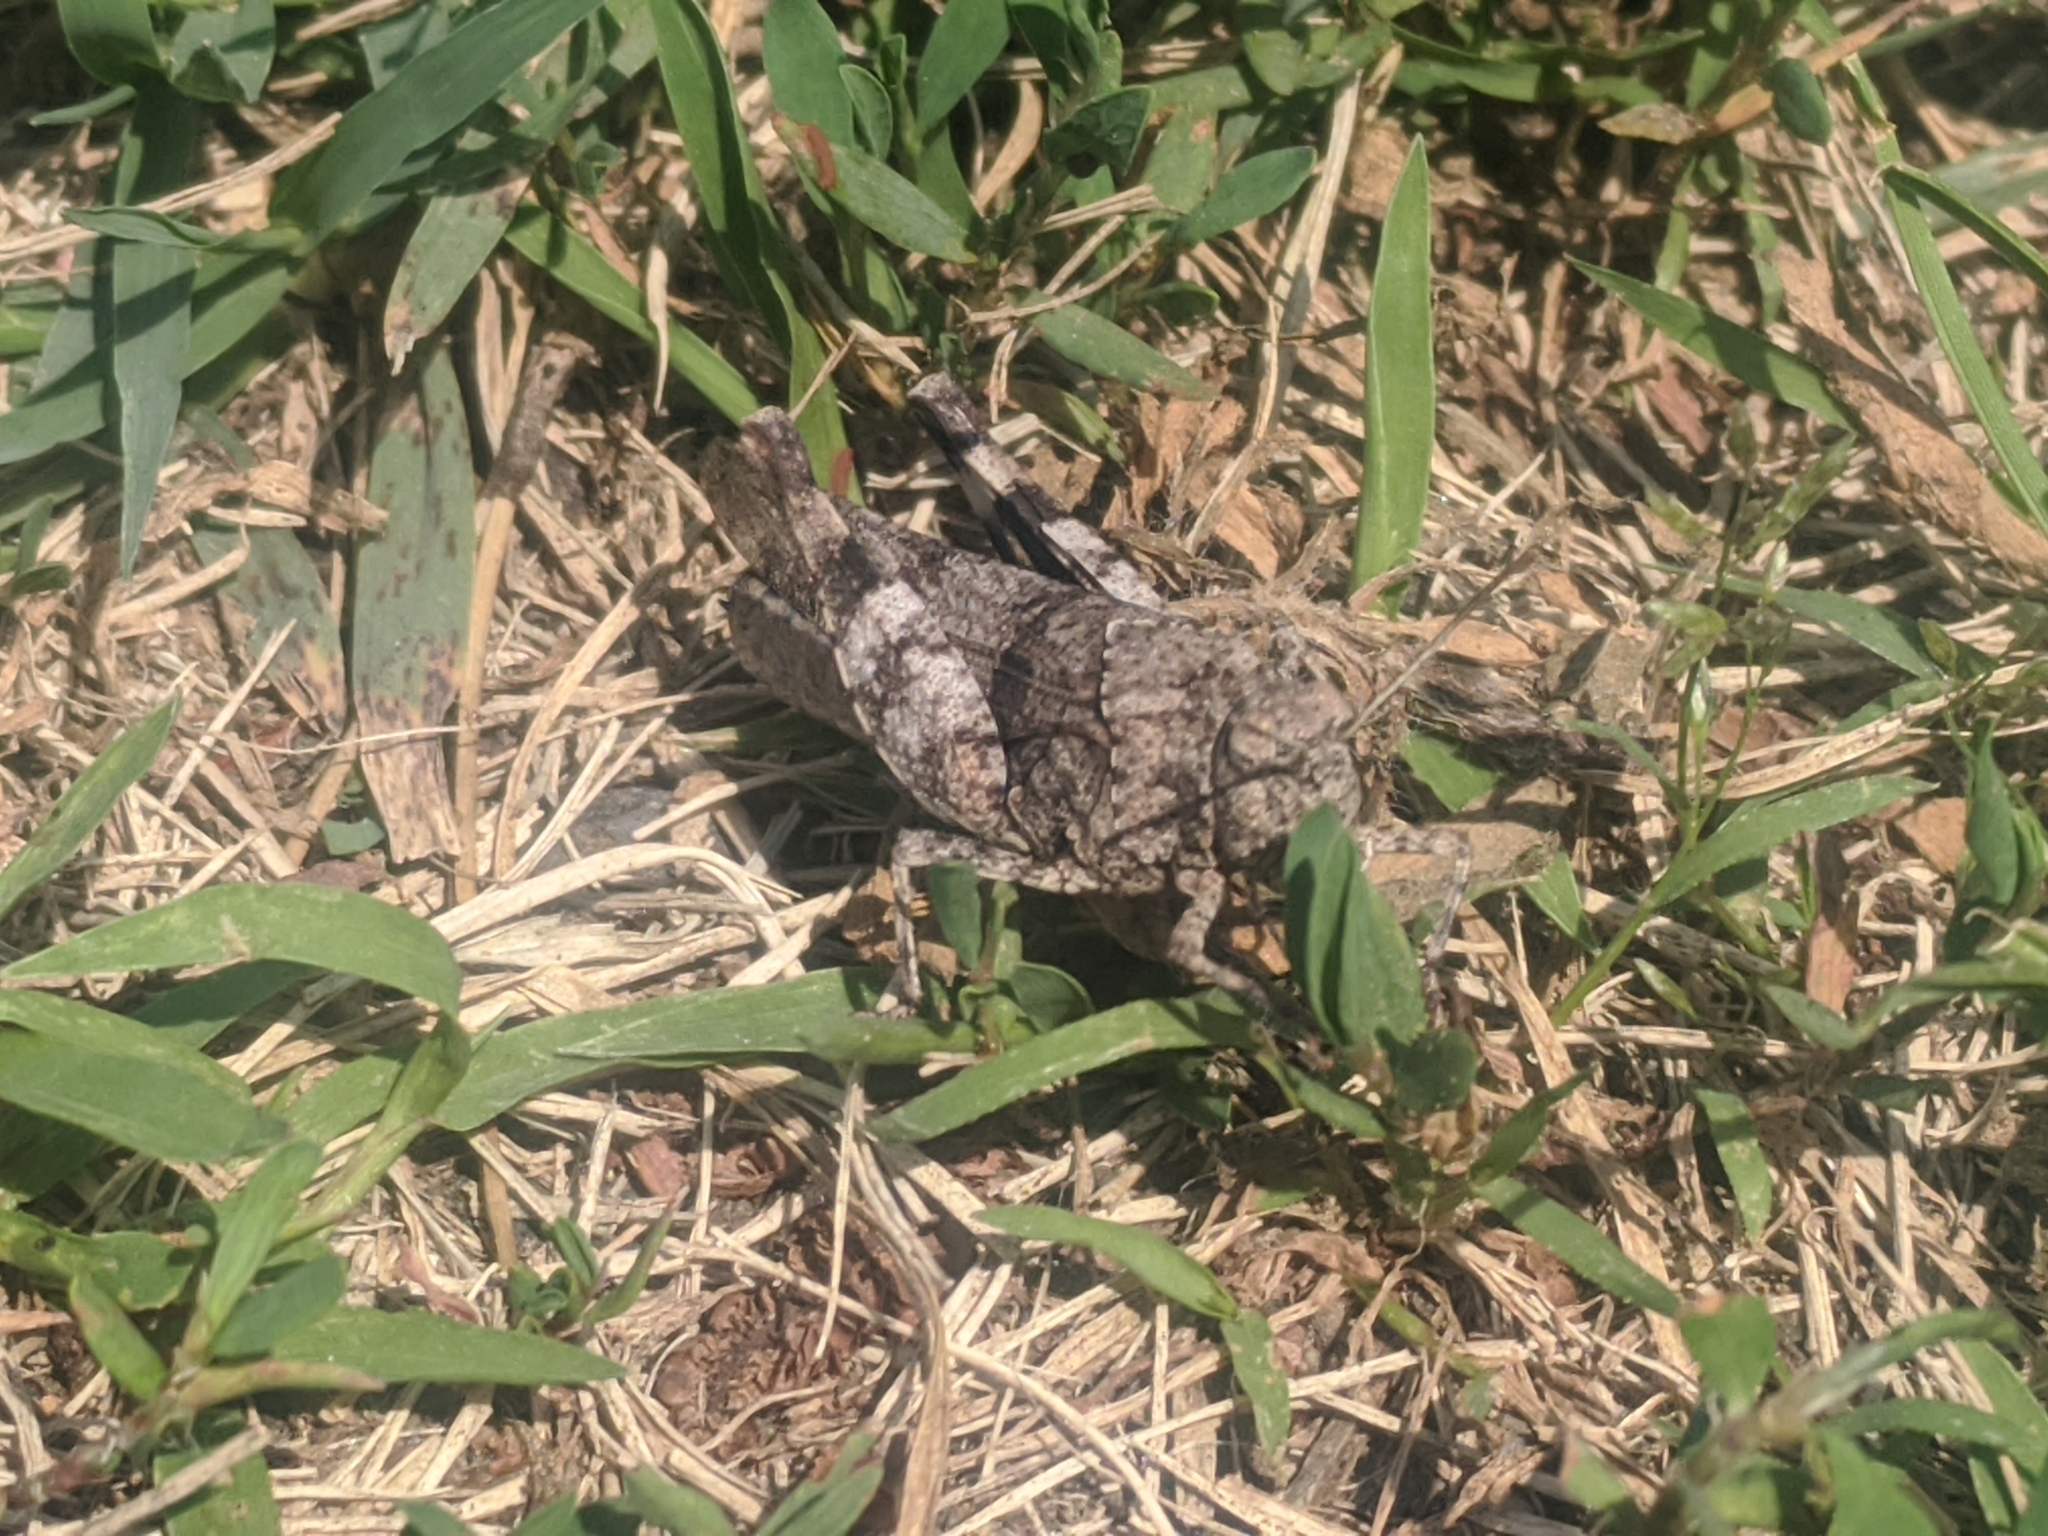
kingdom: Animalia
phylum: Arthropoda
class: Insecta
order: Orthoptera
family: Acrididae
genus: Oedipoda
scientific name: Oedipoda caerulescens
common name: Blue-winged grasshopper
